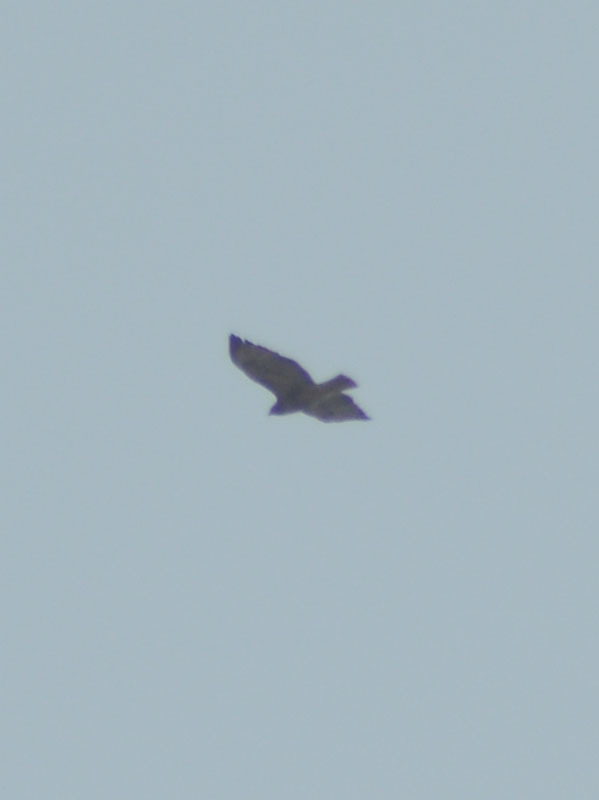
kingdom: Animalia
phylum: Chordata
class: Aves
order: Accipitriformes
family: Accipitridae
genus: Buteo
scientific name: Buteo jamaicensis
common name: Red-tailed hawk
